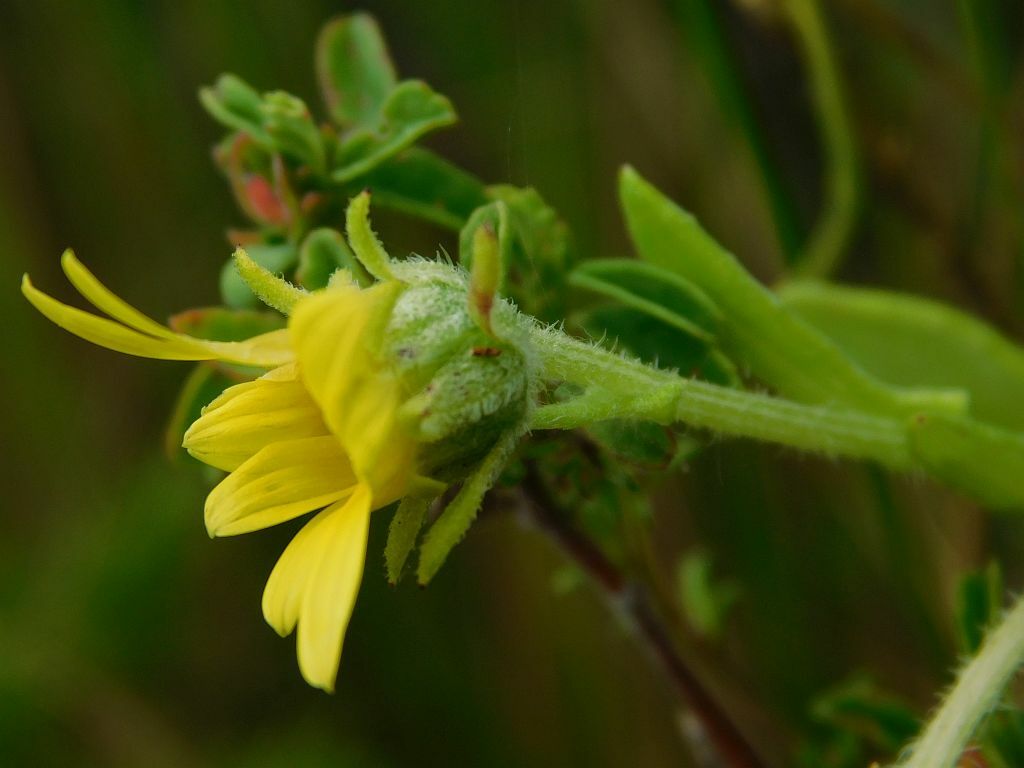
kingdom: Plantae
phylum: Tracheophyta
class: Magnoliopsida
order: Asterales
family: Asteraceae
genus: Arctotis
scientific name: Arctotis scabra
